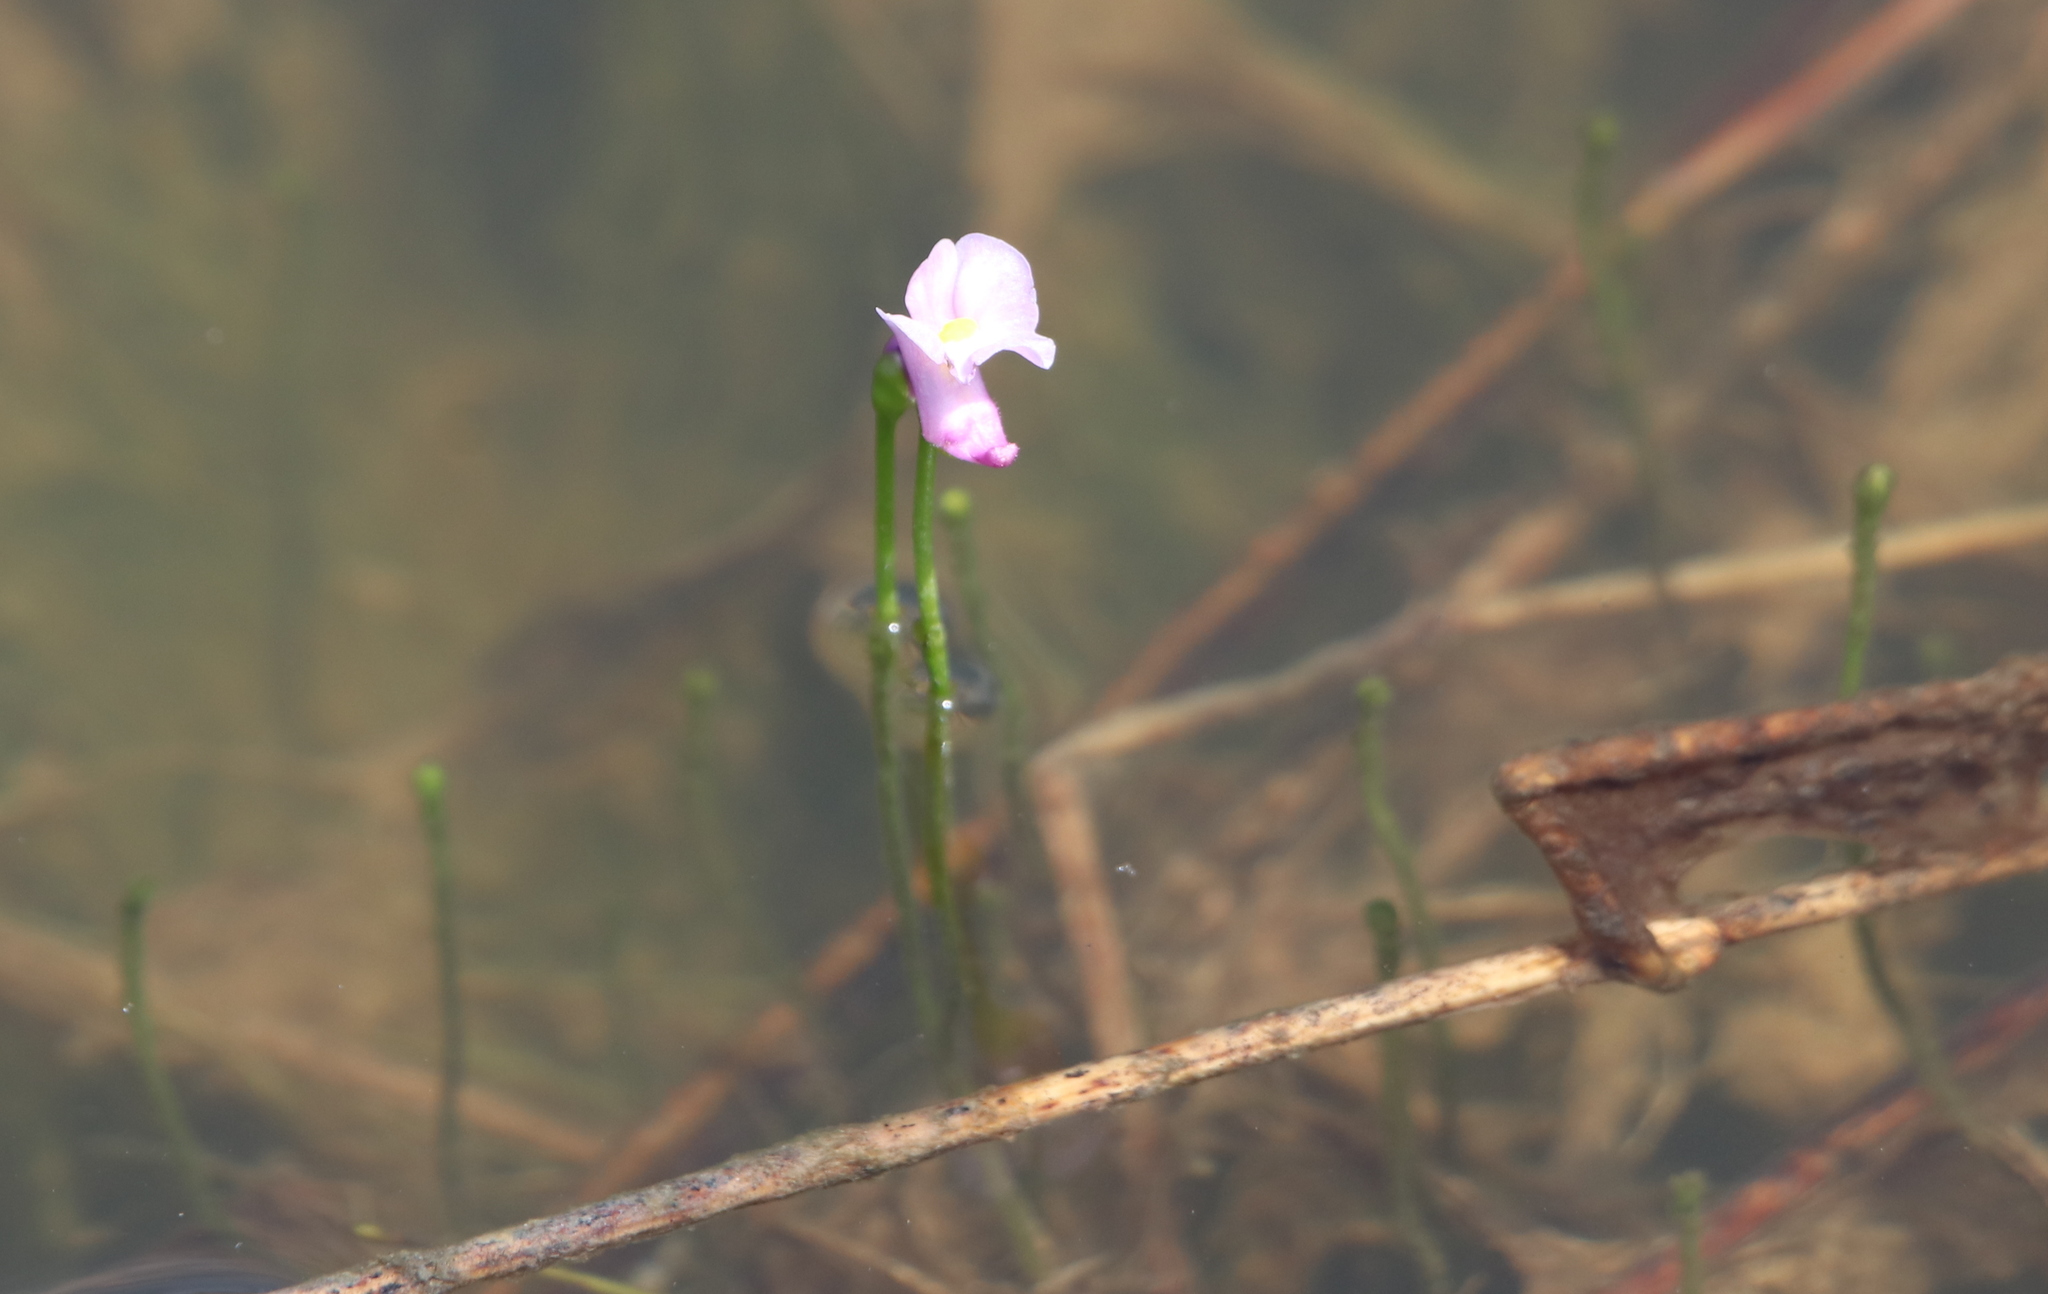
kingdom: Plantae
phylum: Tracheophyta
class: Magnoliopsida
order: Lamiales
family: Lentibulariaceae
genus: Utricularia
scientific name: Utricularia resupinata
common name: Northeastern bladderwort
